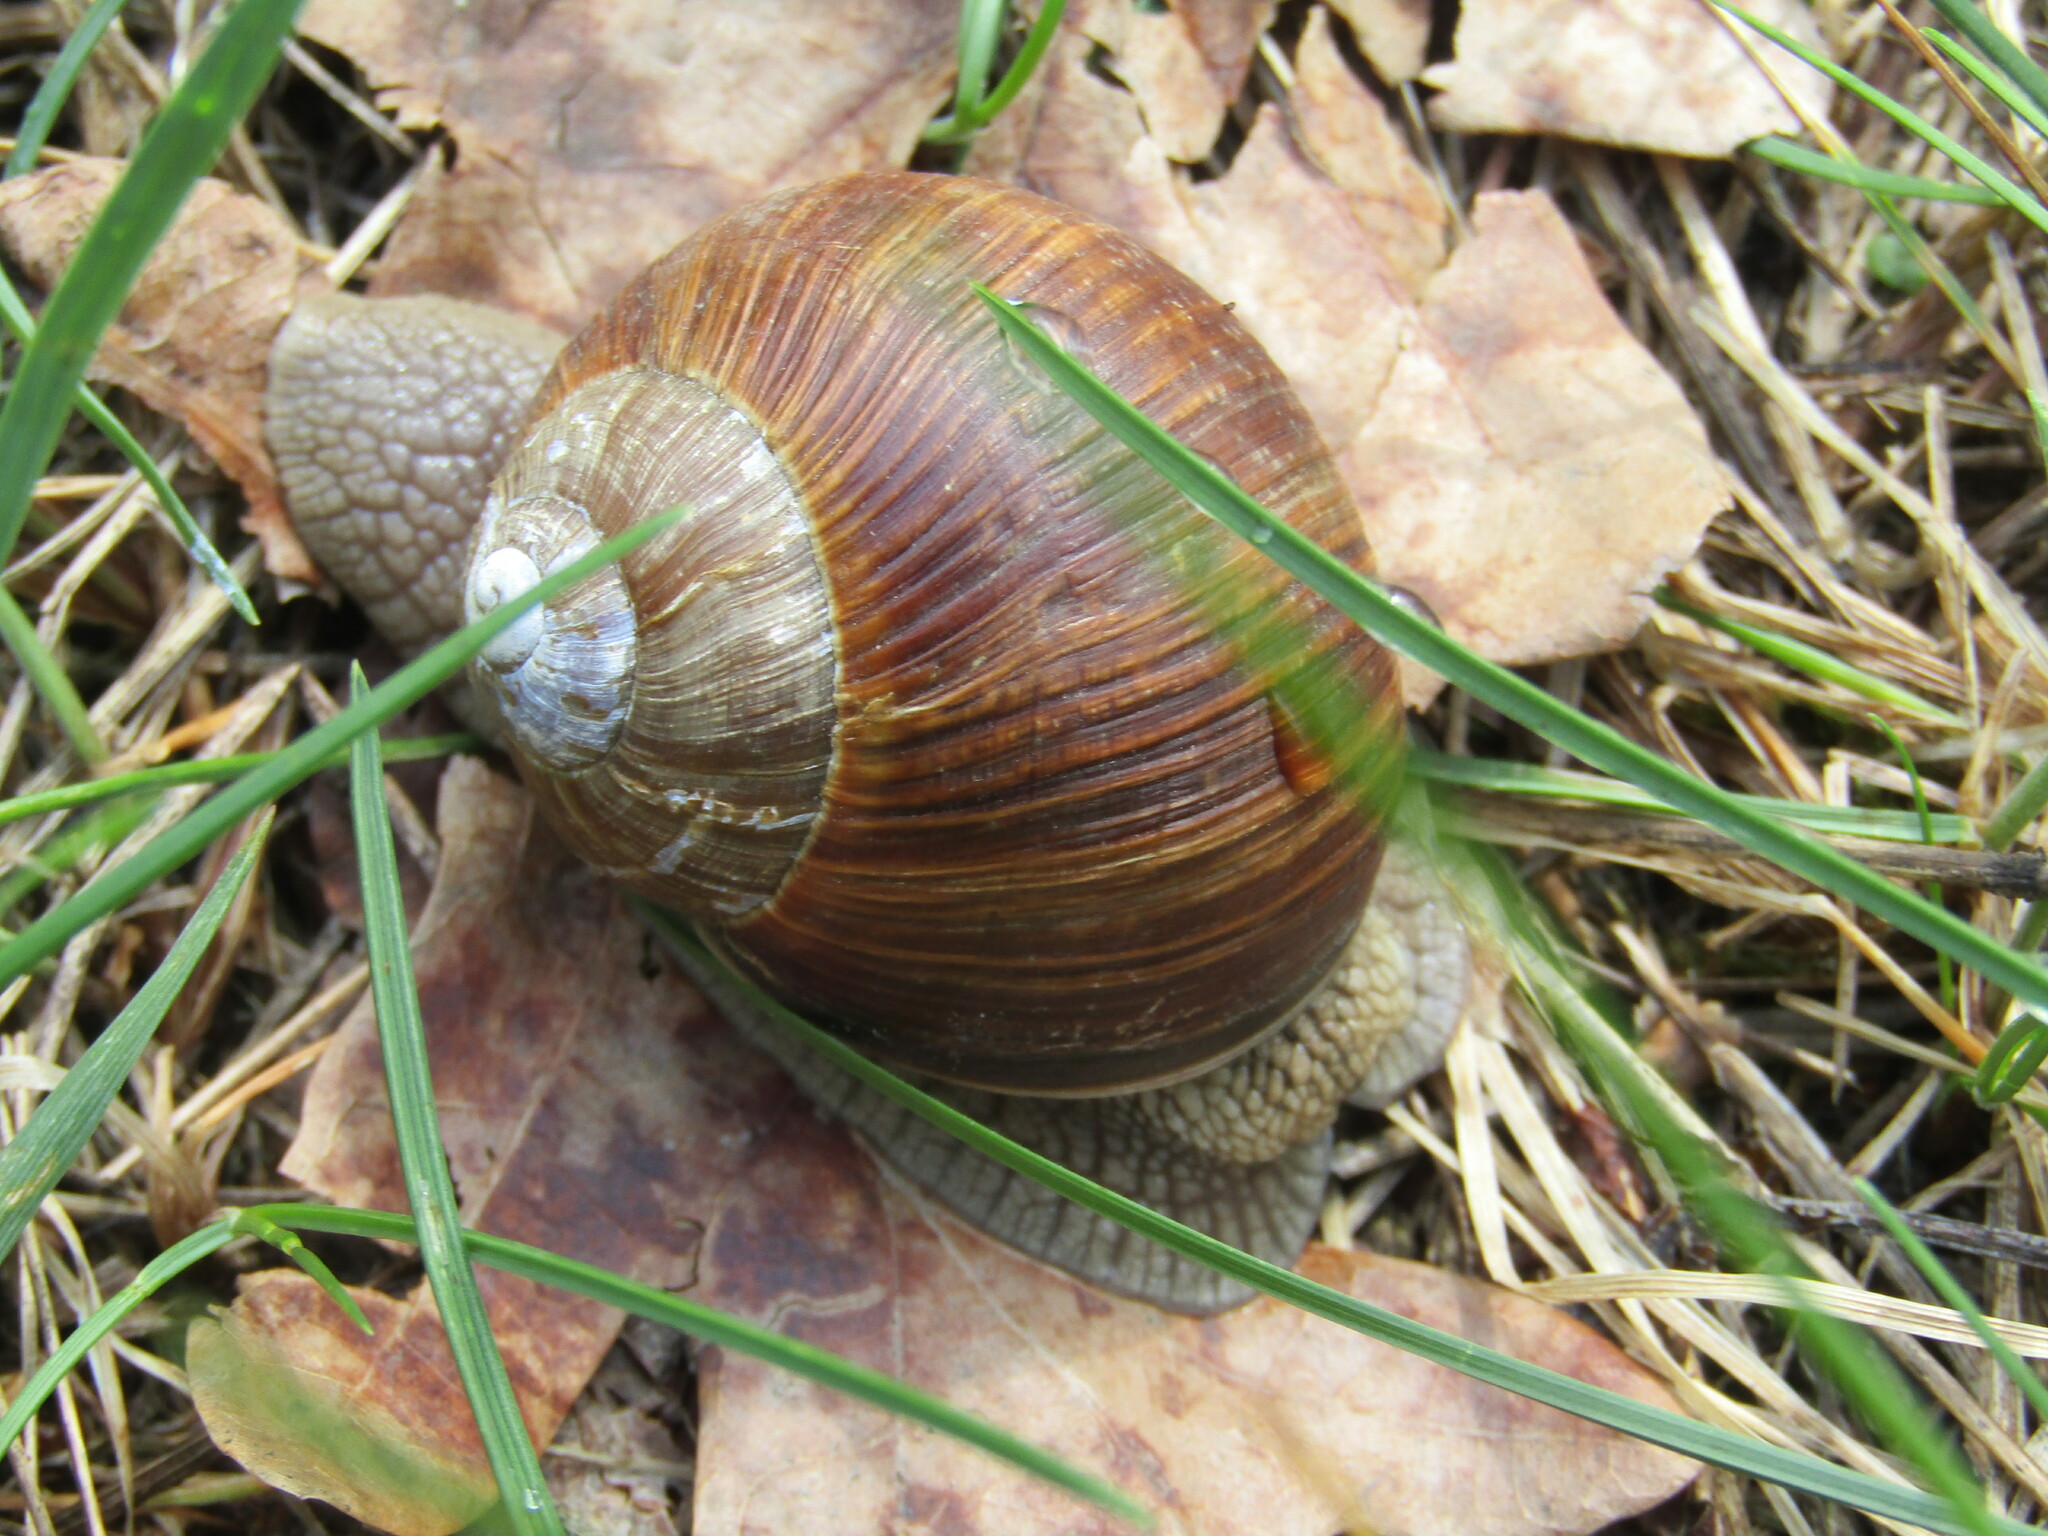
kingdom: Animalia
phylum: Mollusca
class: Gastropoda
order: Stylommatophora
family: Helicidae
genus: Helix
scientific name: Helix pomatia
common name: Roman snail
